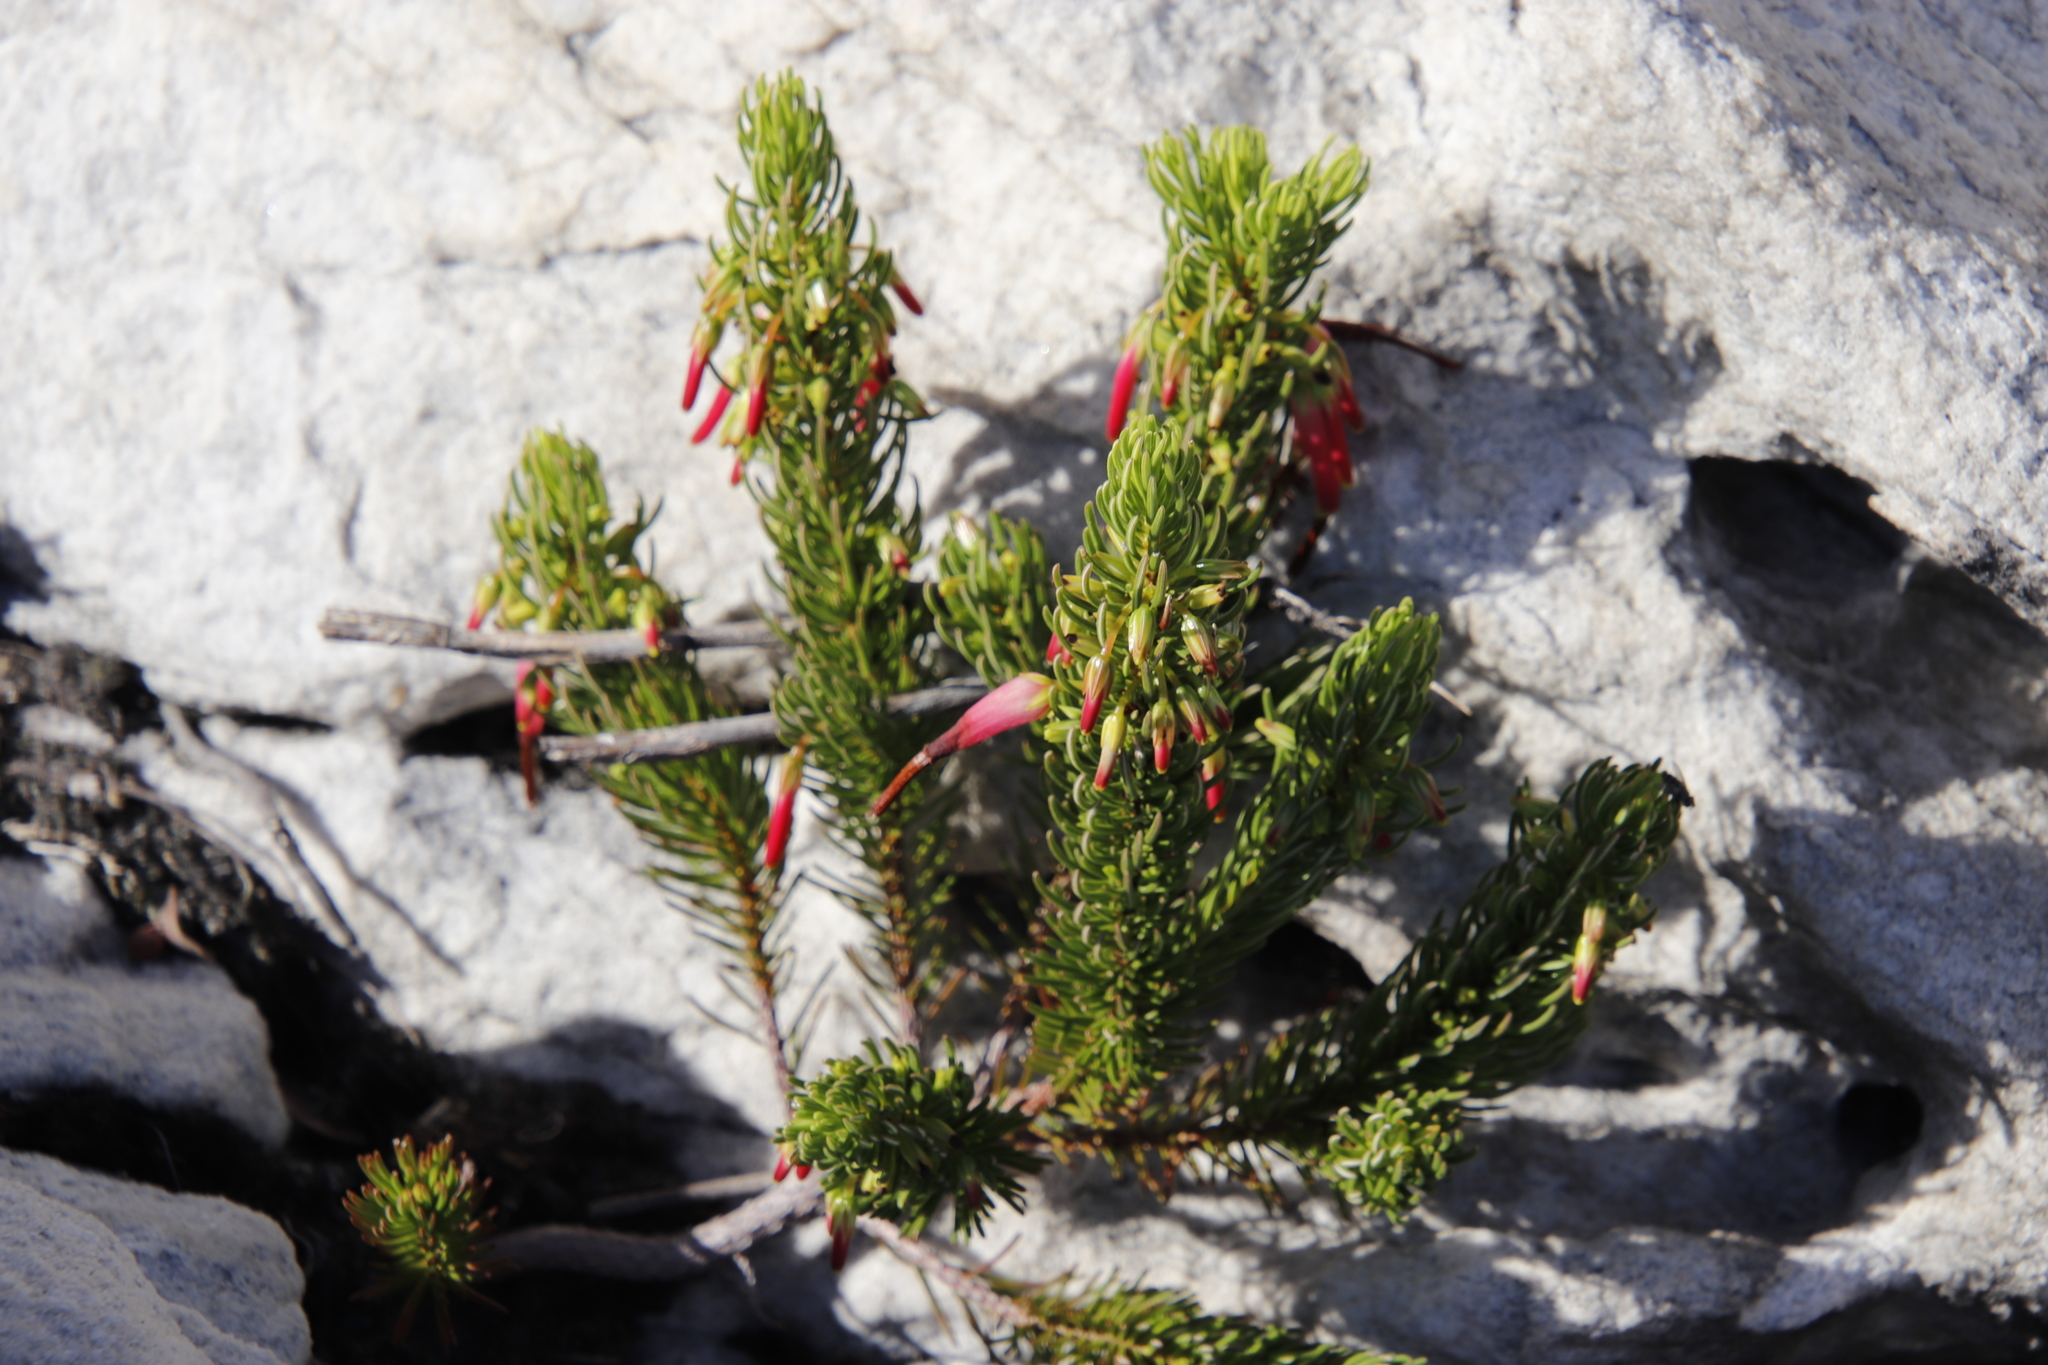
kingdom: Plantae
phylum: Tracheophyta
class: Magnoliopsida
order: Ericales
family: Ericaceae
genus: Erica
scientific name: Erica plukenetii
